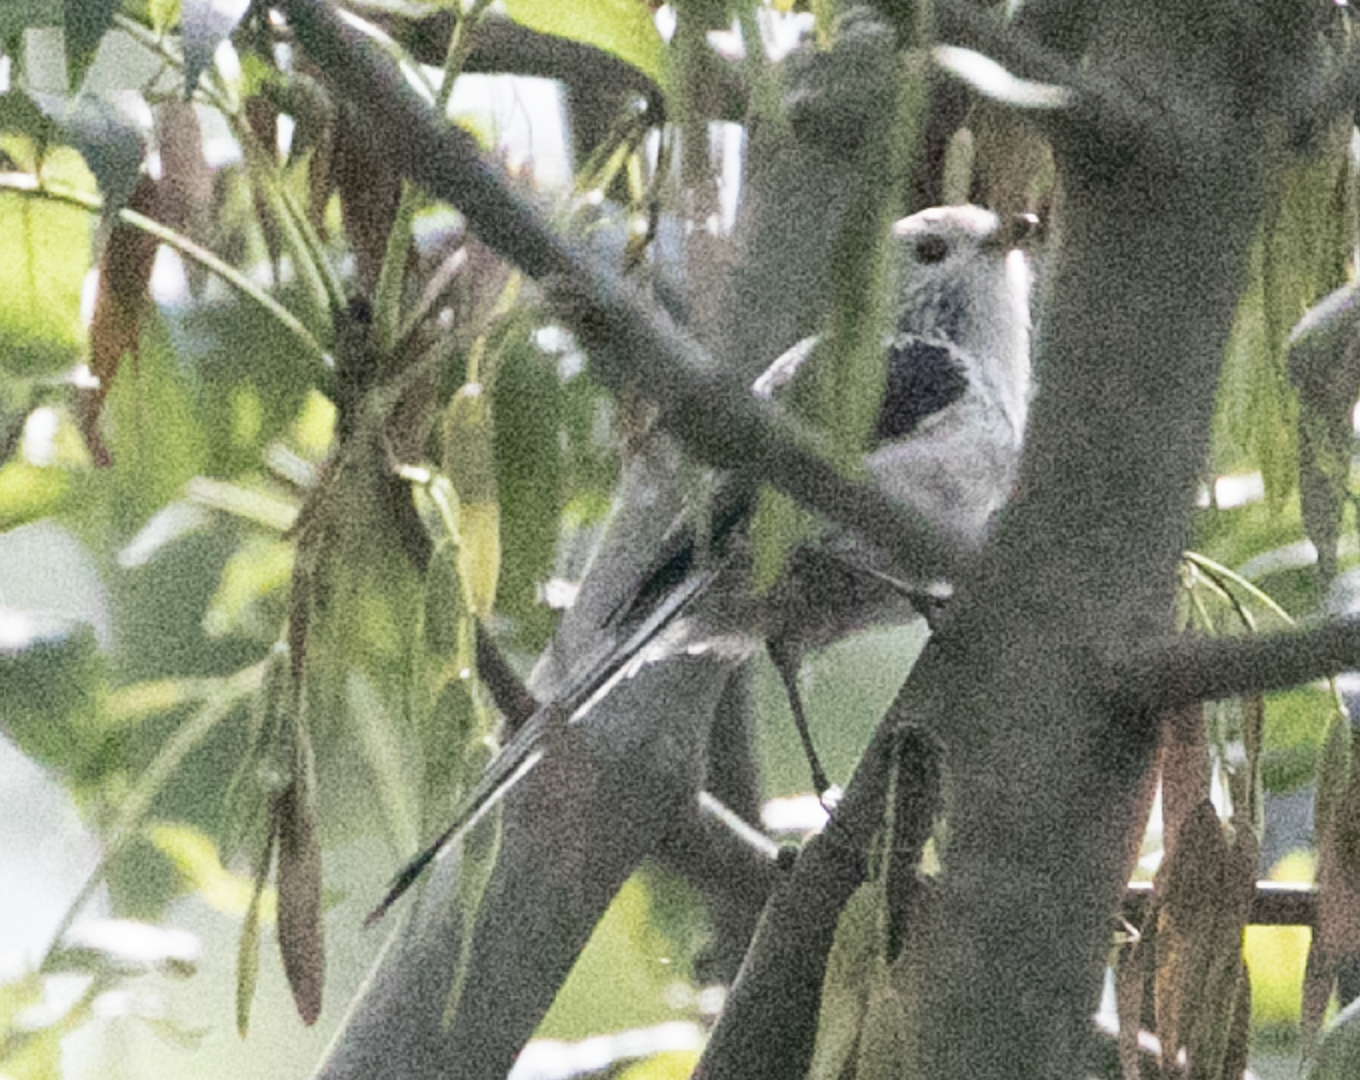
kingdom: Animalia
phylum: Chordata
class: Aves
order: Passeriformes
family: Aegithalidae
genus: Aegithalos
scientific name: Aegithalos caudatus
